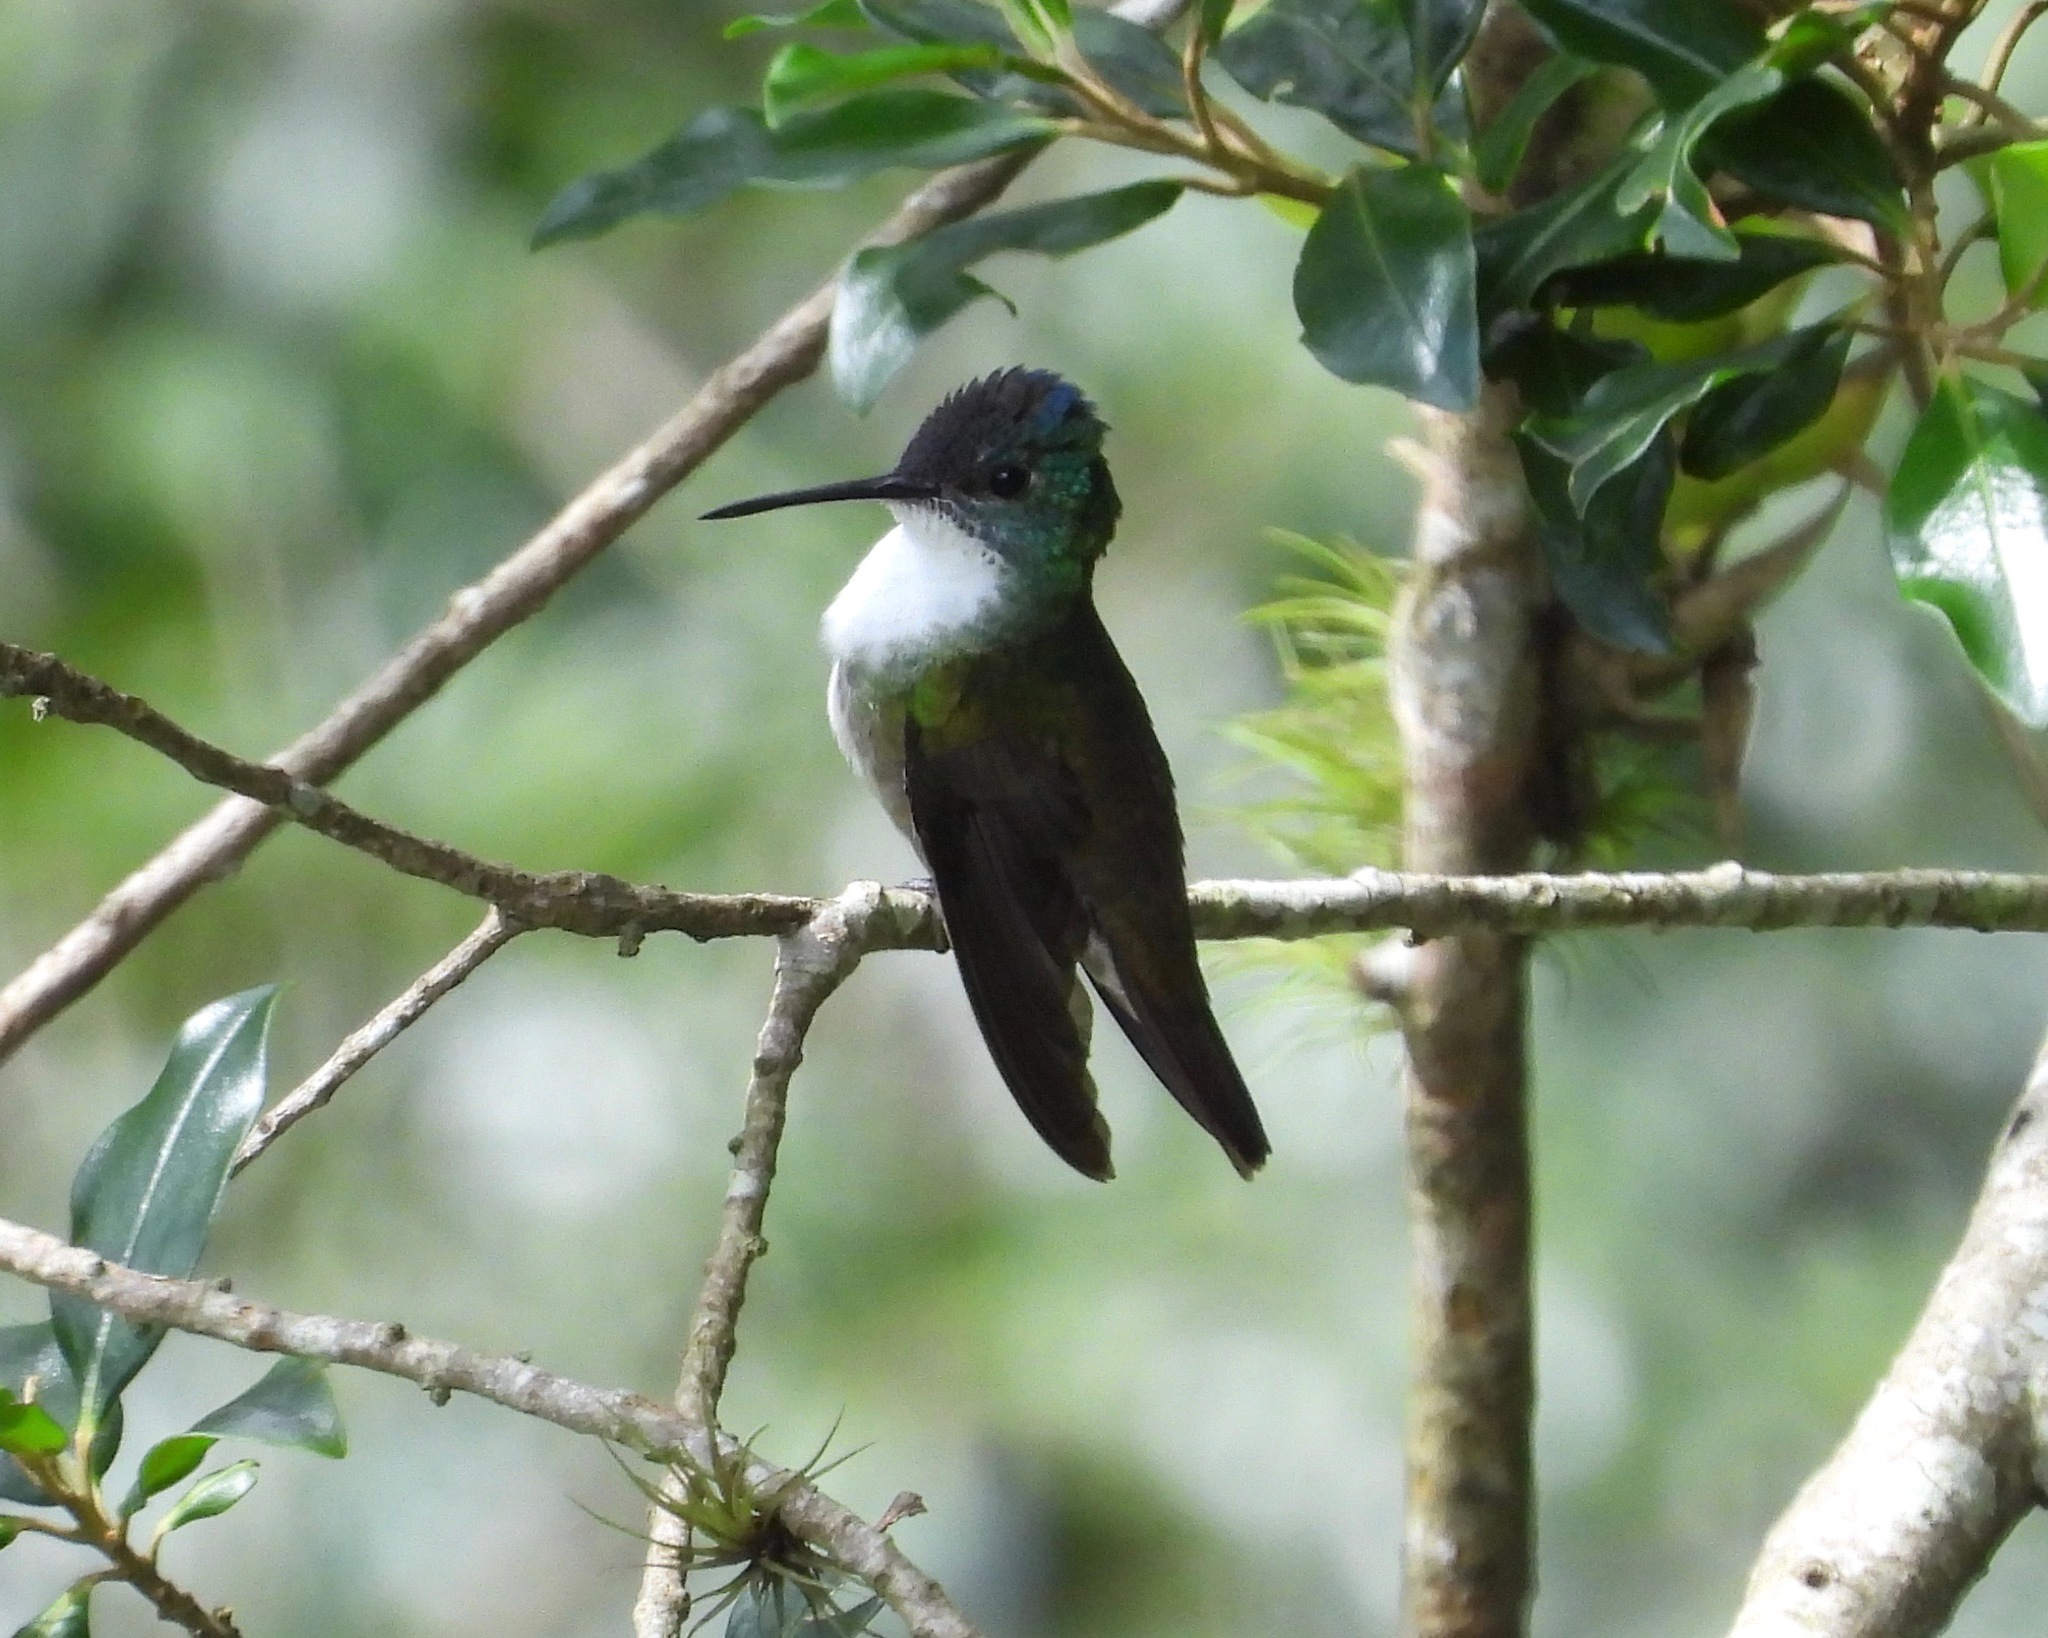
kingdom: Animalia
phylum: Chordata
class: Aves
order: Apodiformes
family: Trochilidae
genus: Saucerottia
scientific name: Saucerottia cyanocephala
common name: Azure-crowned hummingbird
